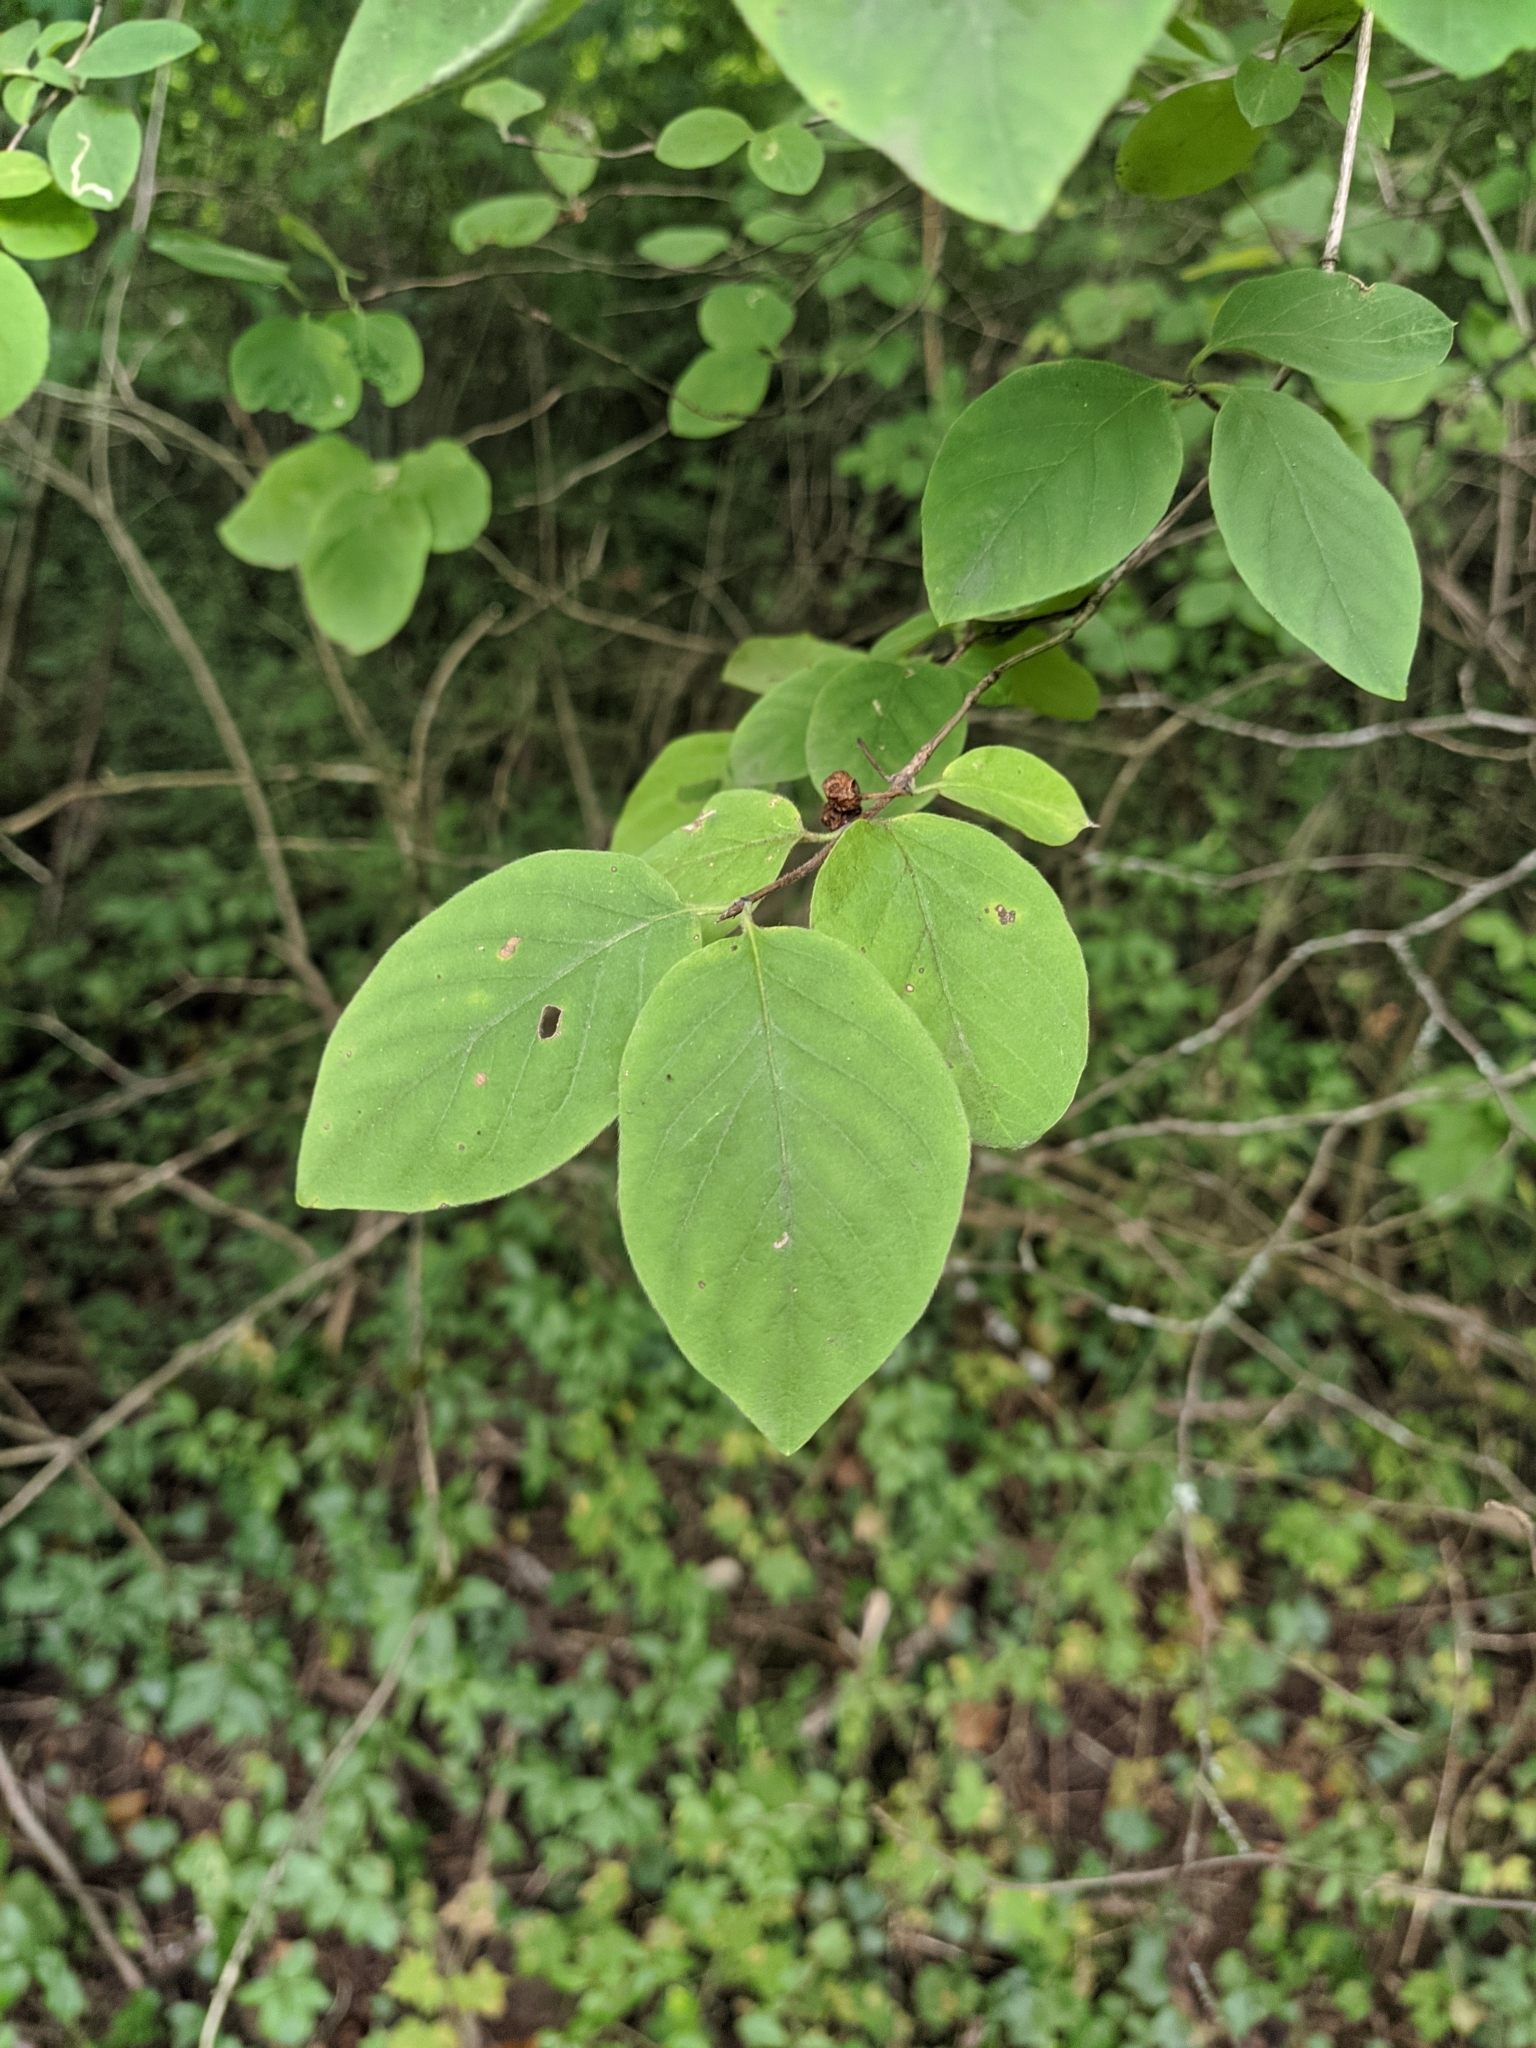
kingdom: Plantae
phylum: Tracheophyta
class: Magnoliopsida
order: Dipsacales
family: Caprifoliaceae
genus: Lonicera
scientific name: Lonicera xylosteum
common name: Fly honeysuckle
